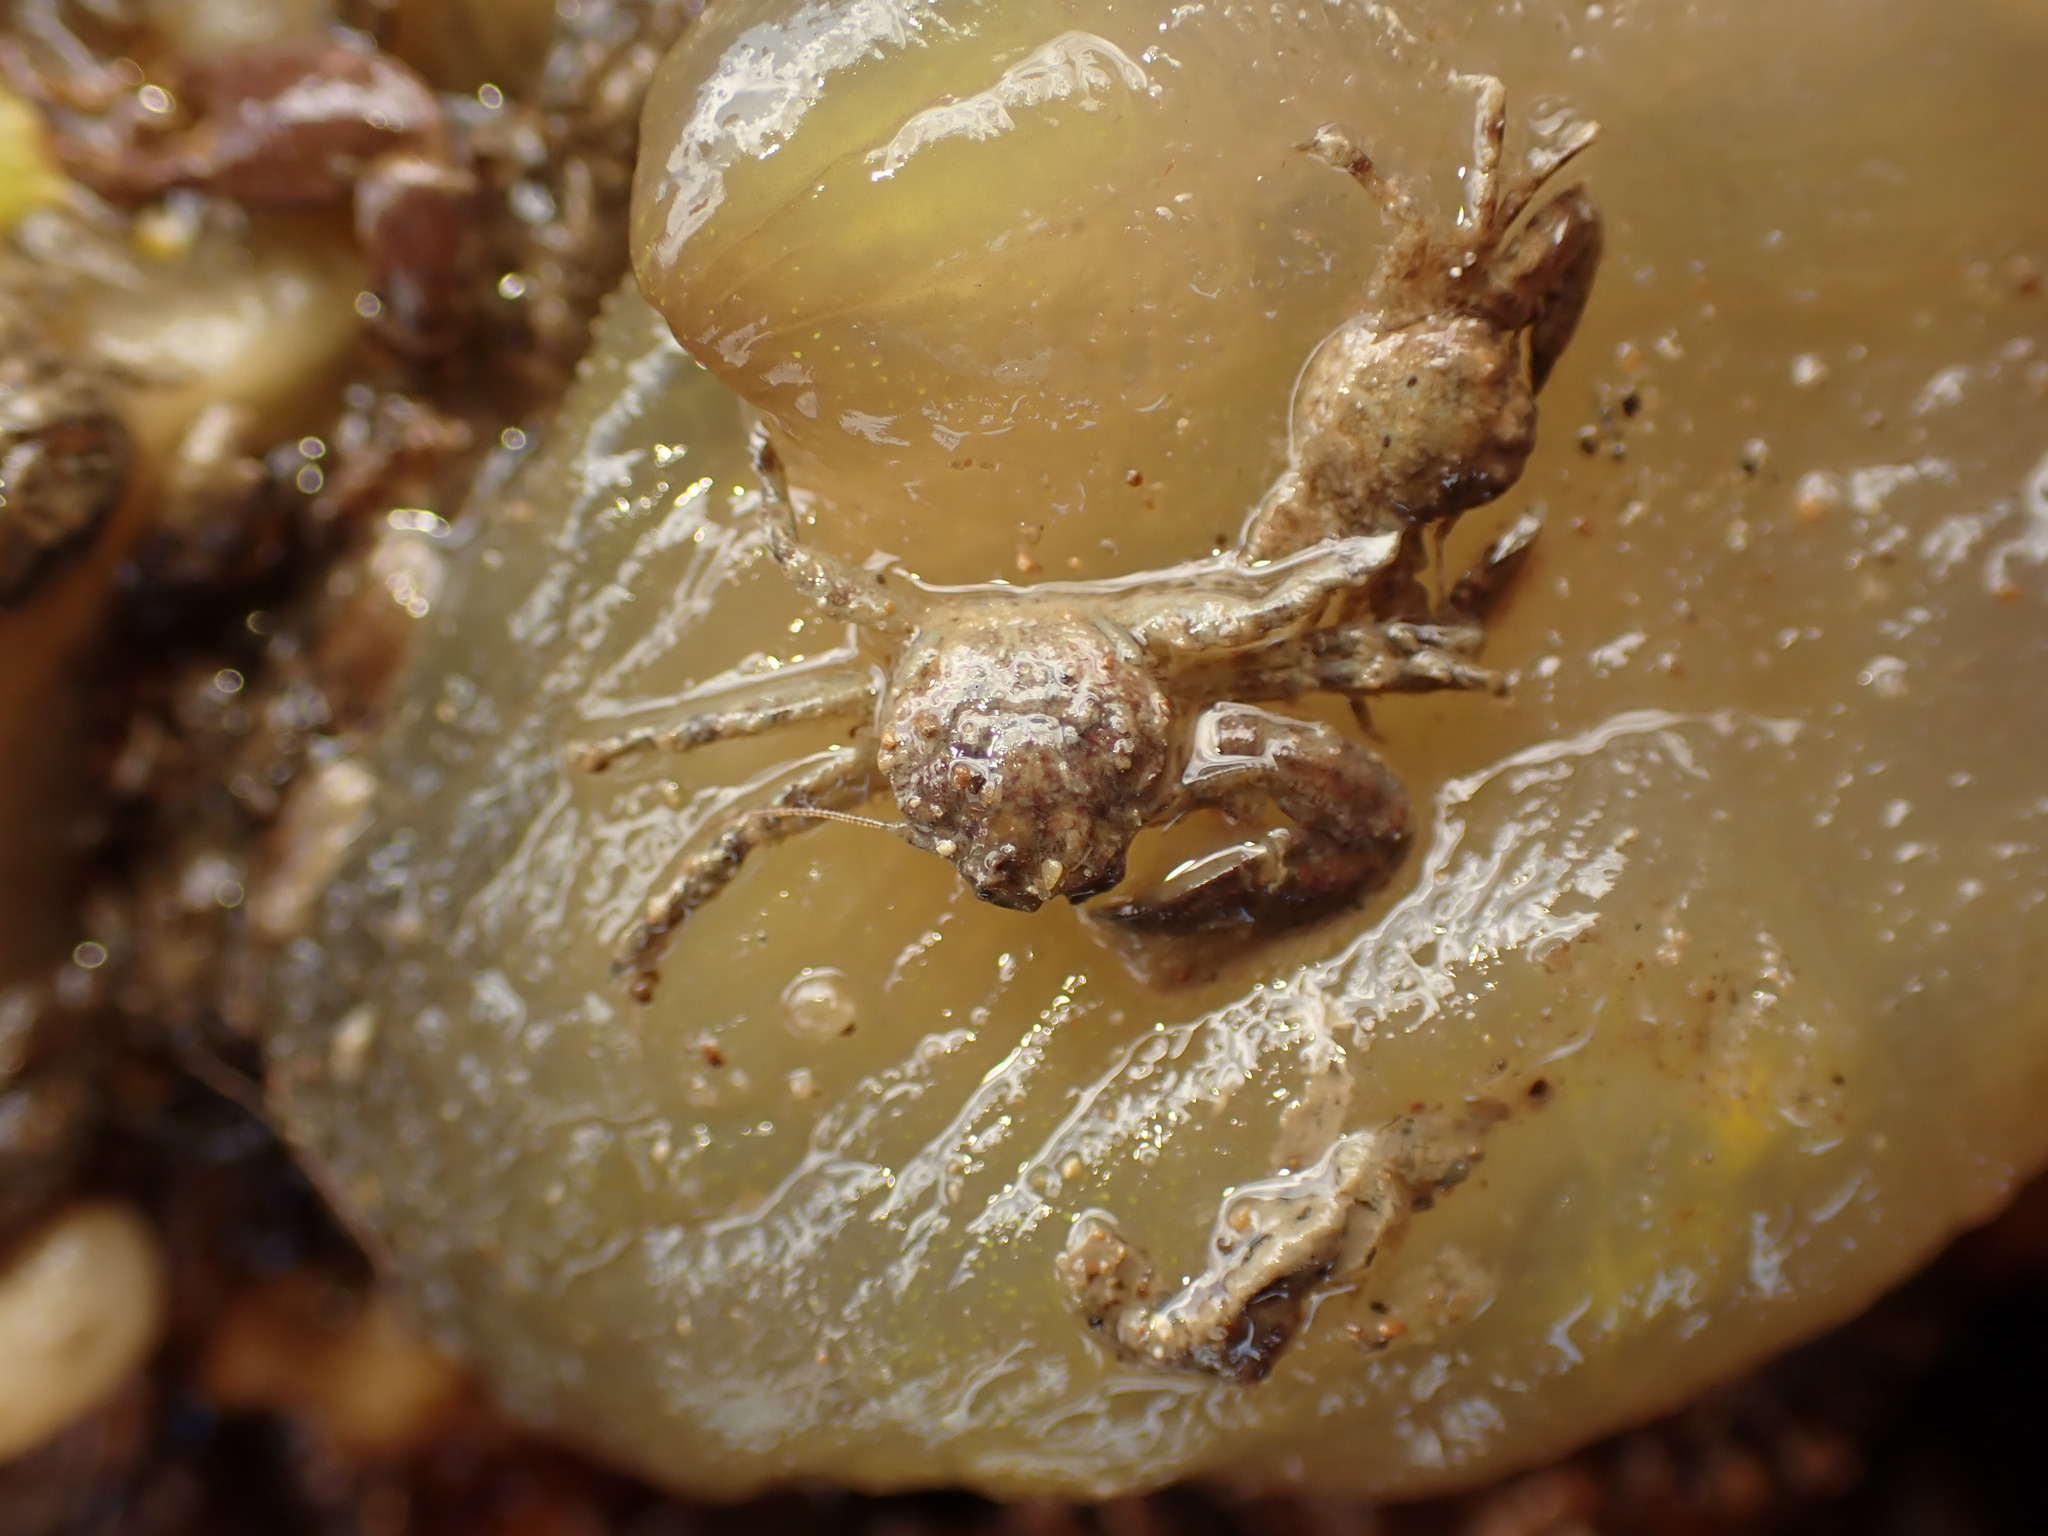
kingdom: Animalia
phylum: Arthropoda
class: Malacostraca
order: Decapoda
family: Porcellanidae
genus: Petrolisthes
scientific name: Petrolisthes novaezelandiae
